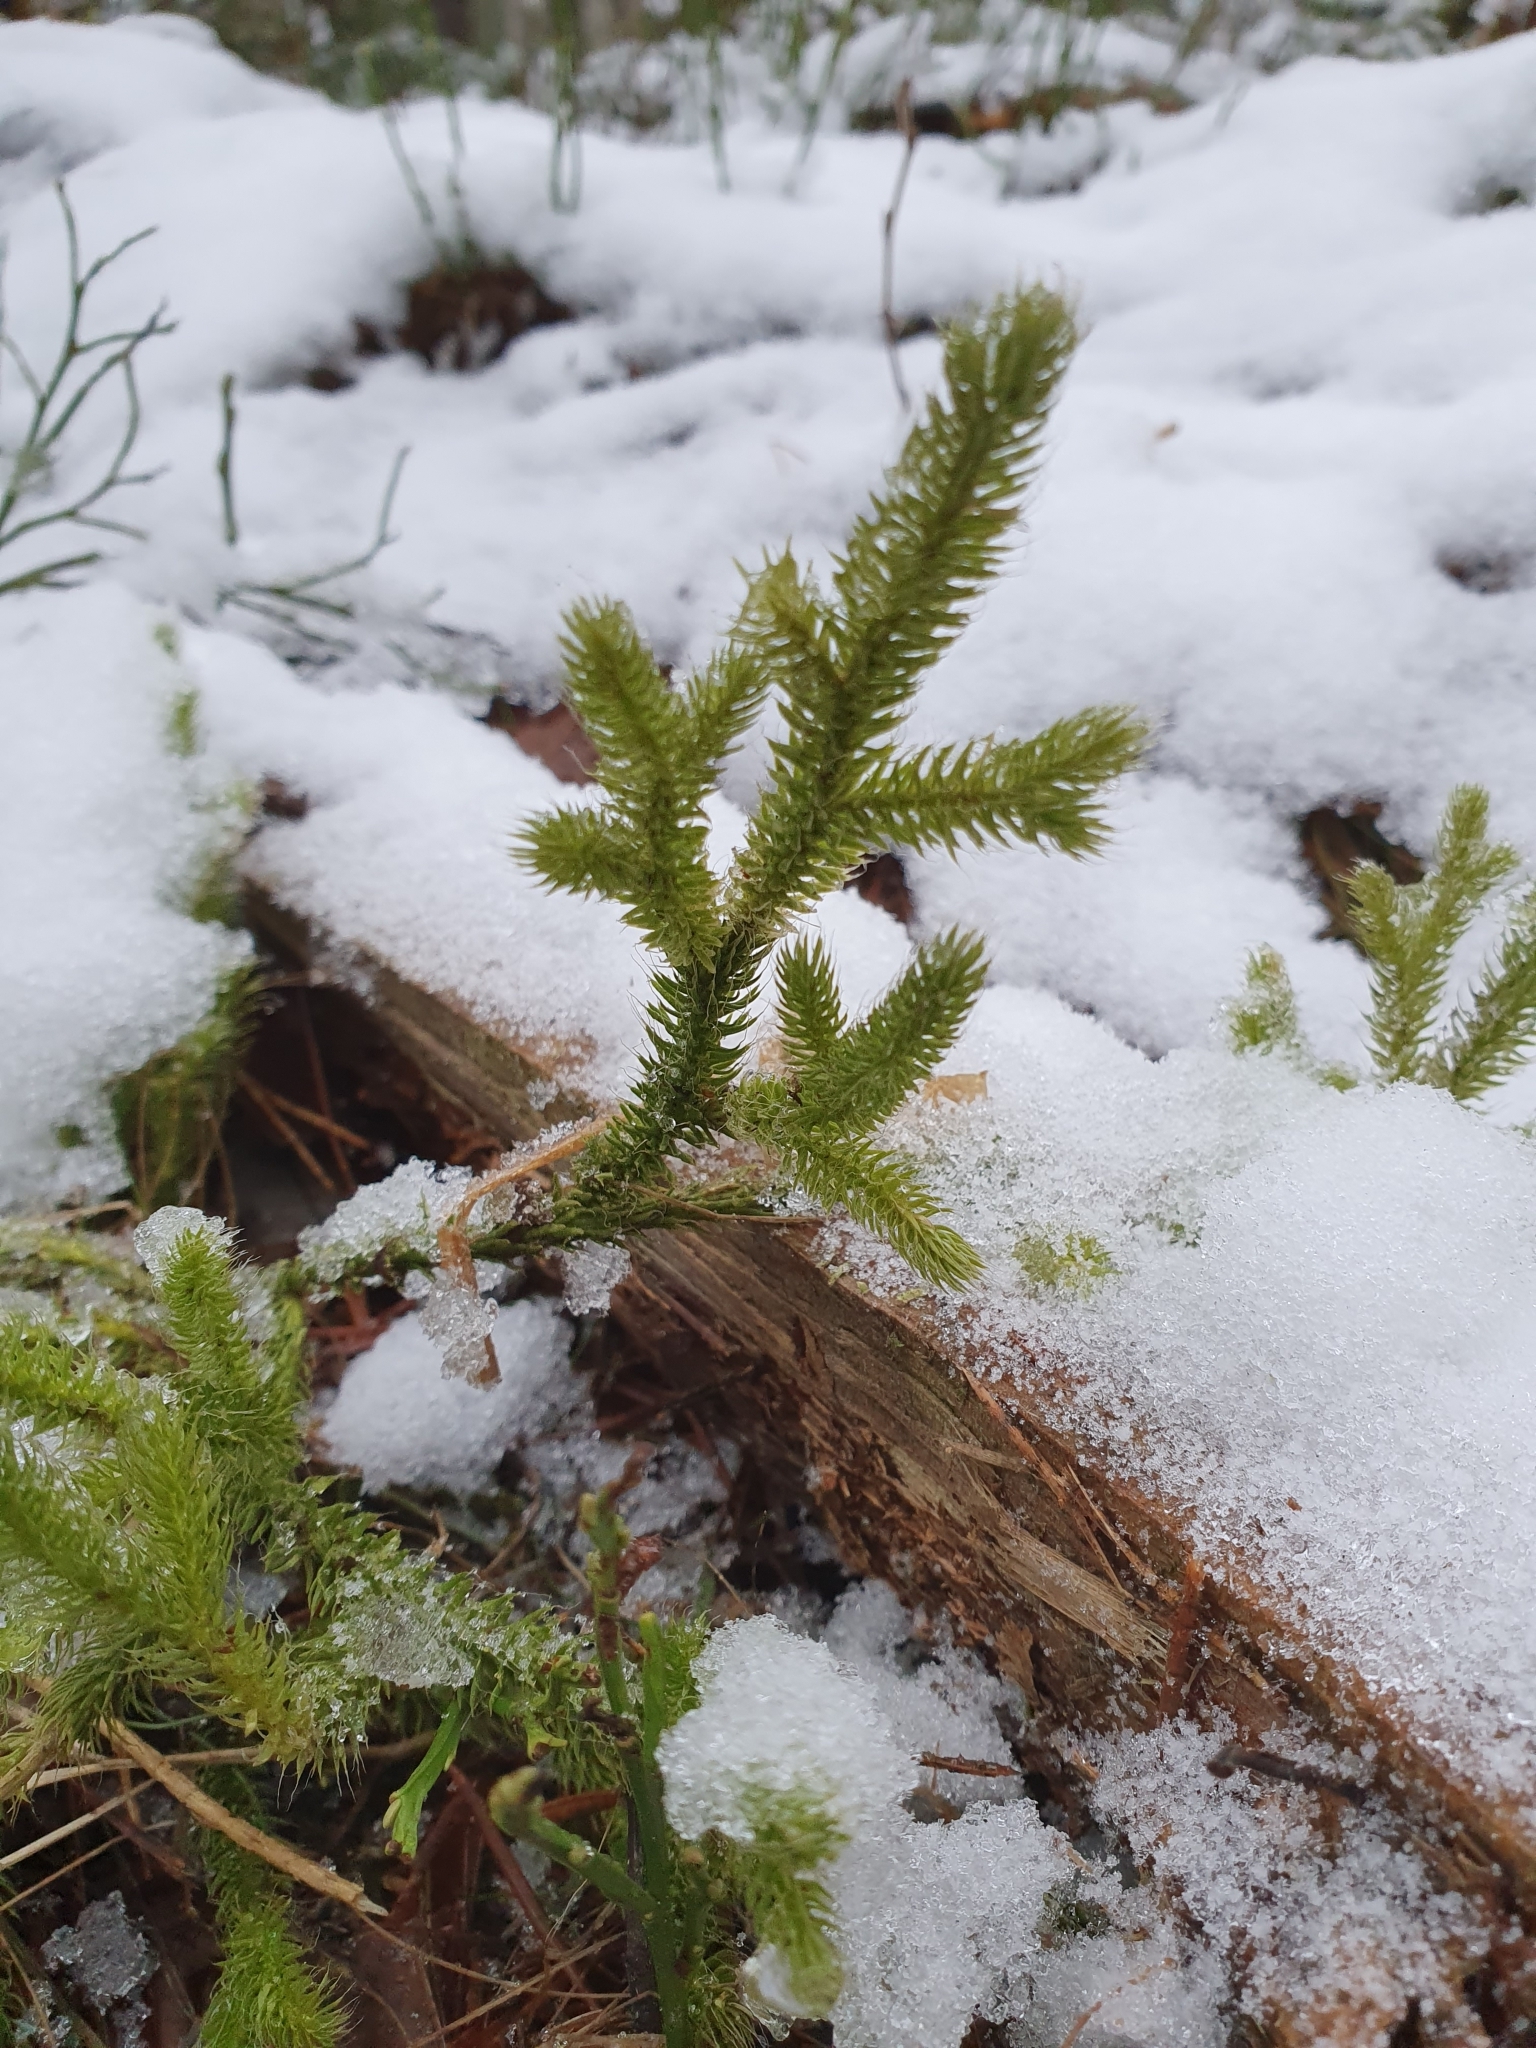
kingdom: Plantae
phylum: Tracheophyta
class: Lycopodiopsida
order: Lycopodiales
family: Lycopodiaceae
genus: Lycopodium
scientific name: Lycopodium clavatum
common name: Stag's-horn clubmoss
